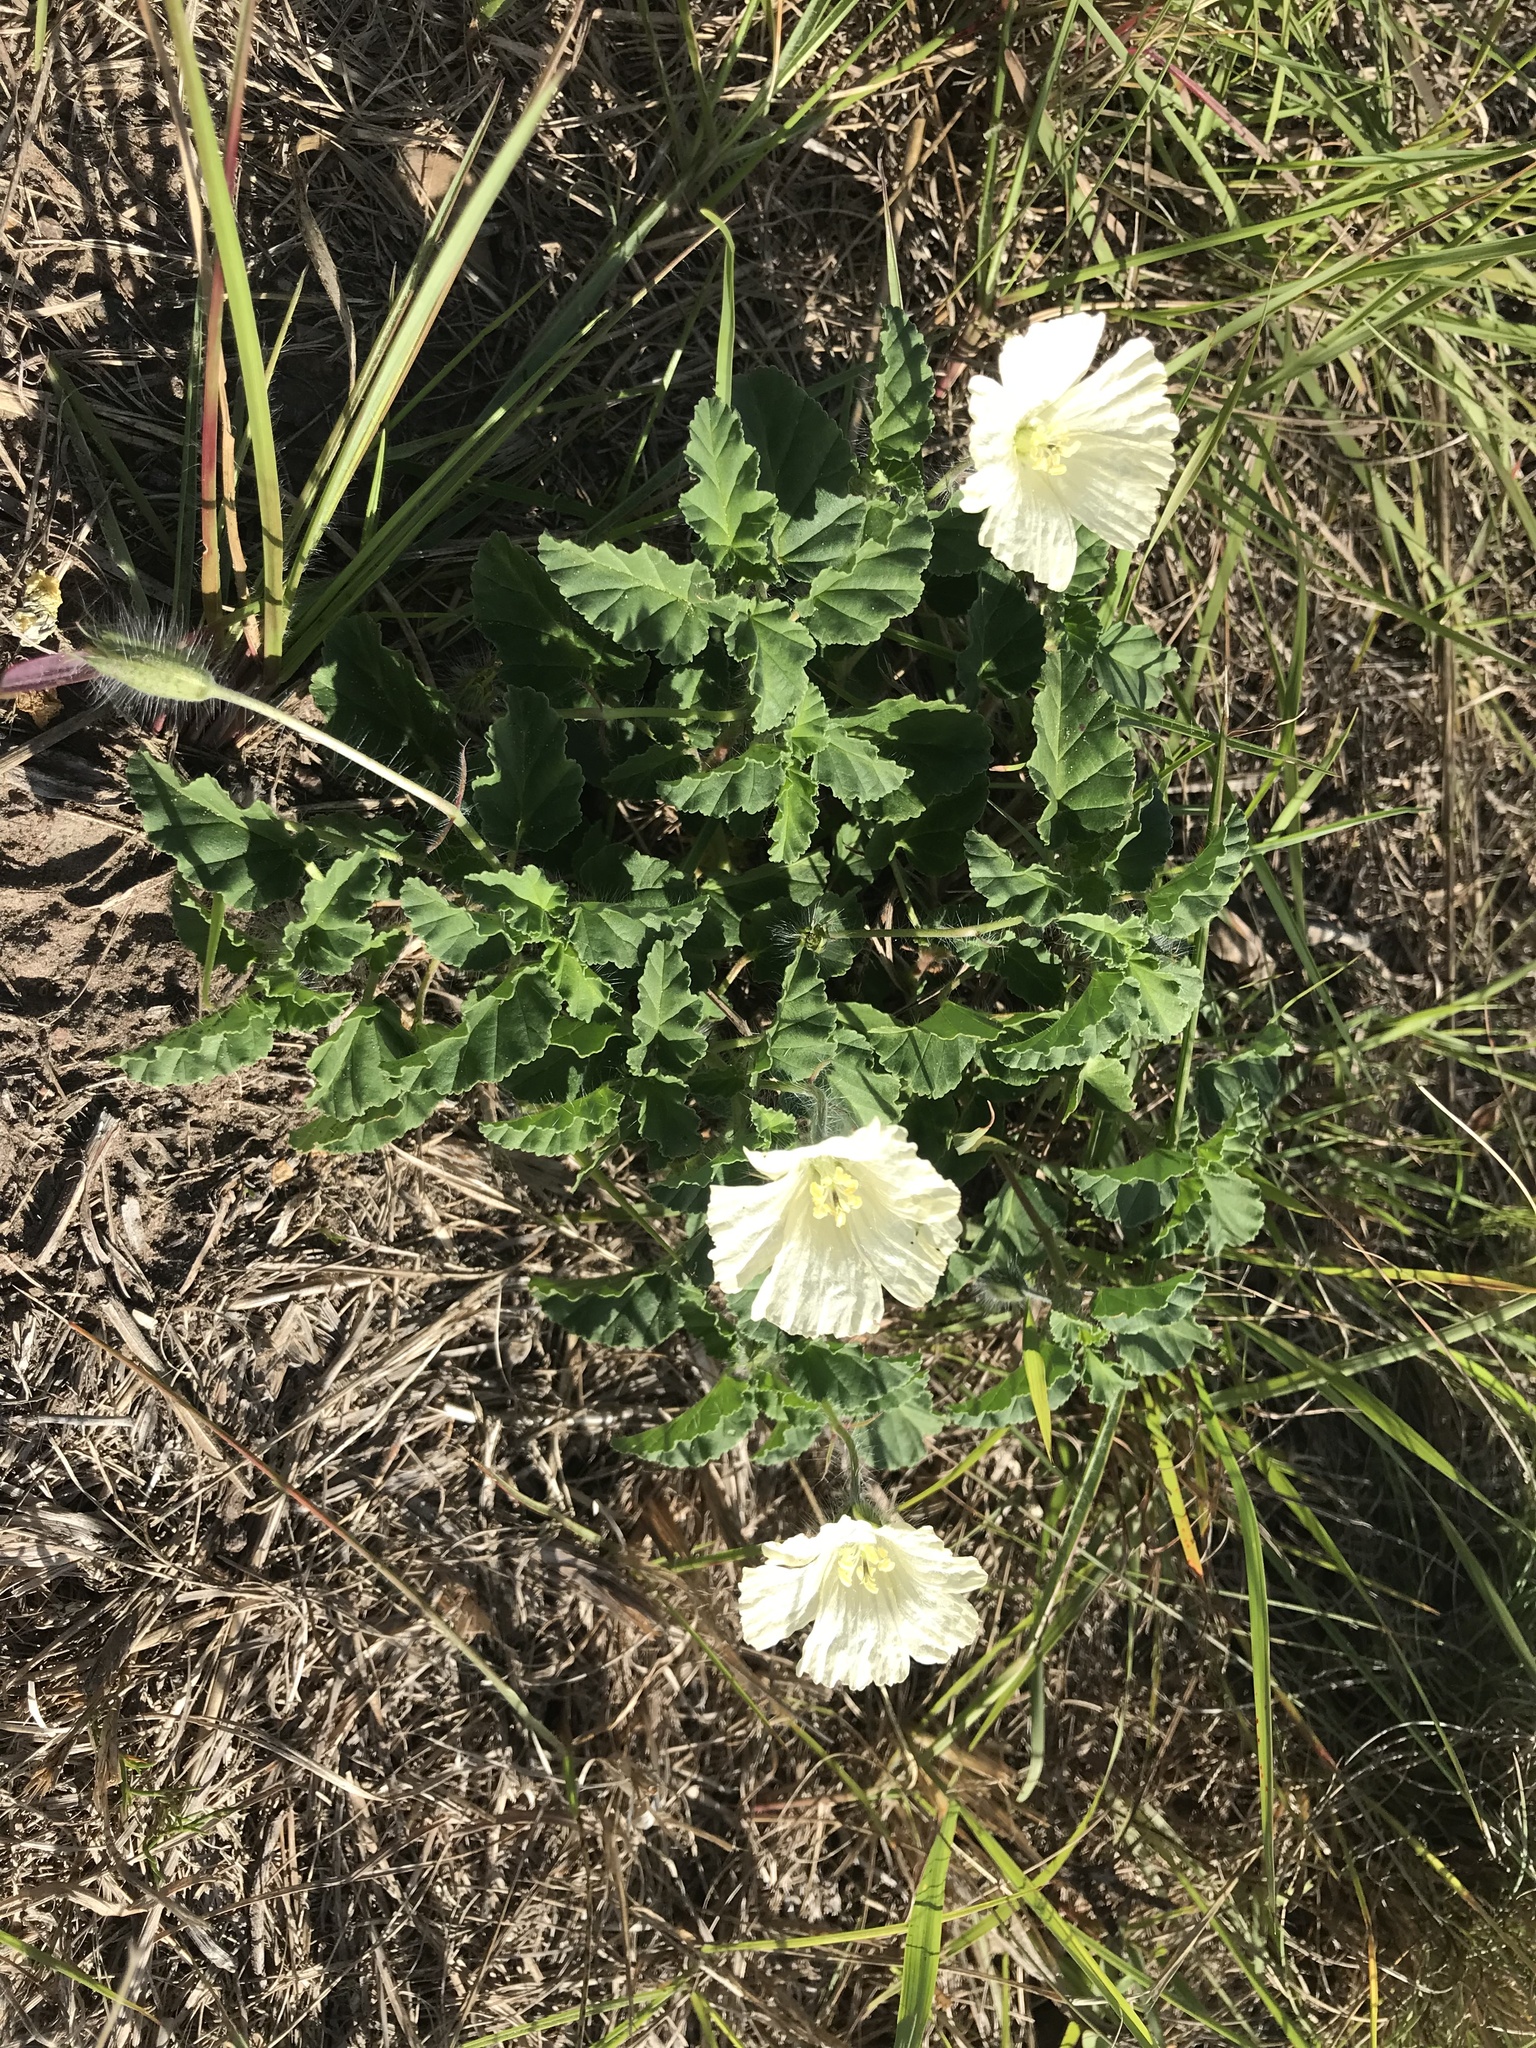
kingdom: Plantae
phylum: Tracheophyta
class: Magnoliopsida
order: Geraniales
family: Geraniaceae
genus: Monsonia
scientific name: Monsonia emarginata
